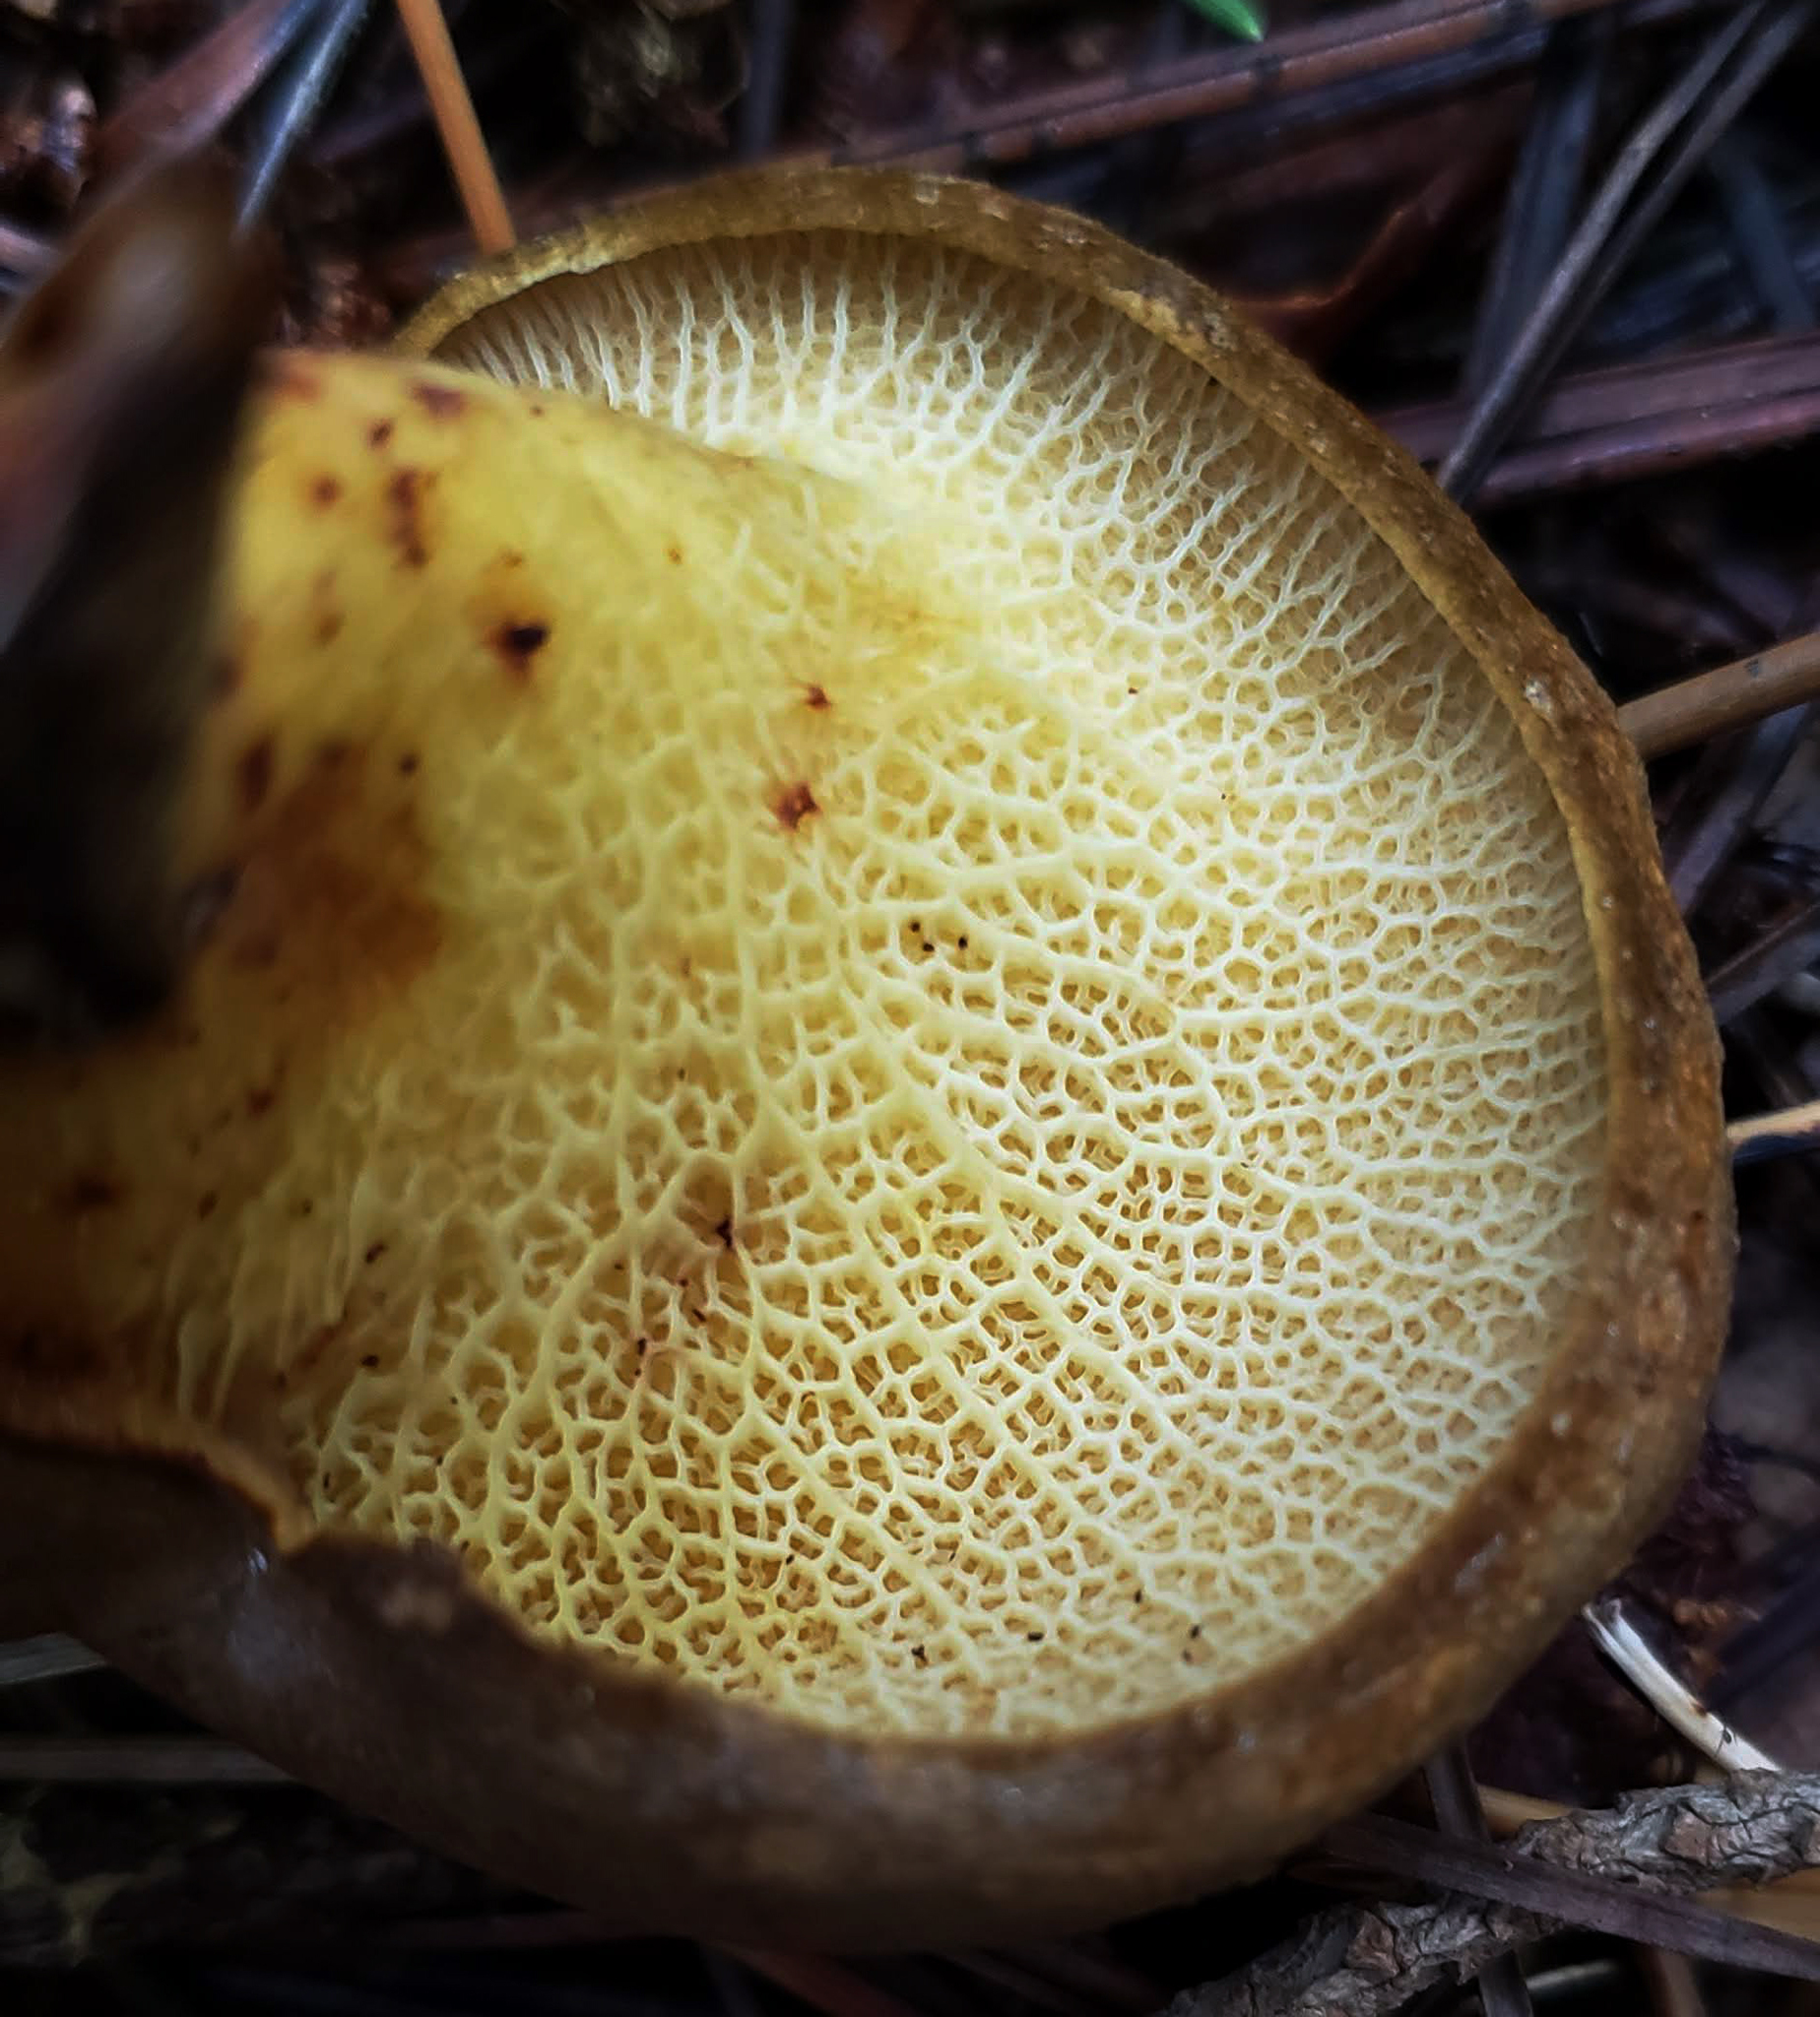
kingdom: Fungi
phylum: Basidiomycota
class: Agaricomycetes
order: Boletales
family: Boletinellaceae
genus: Boletinellus
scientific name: Boletinellus merulioides
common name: Ash tree bolete
